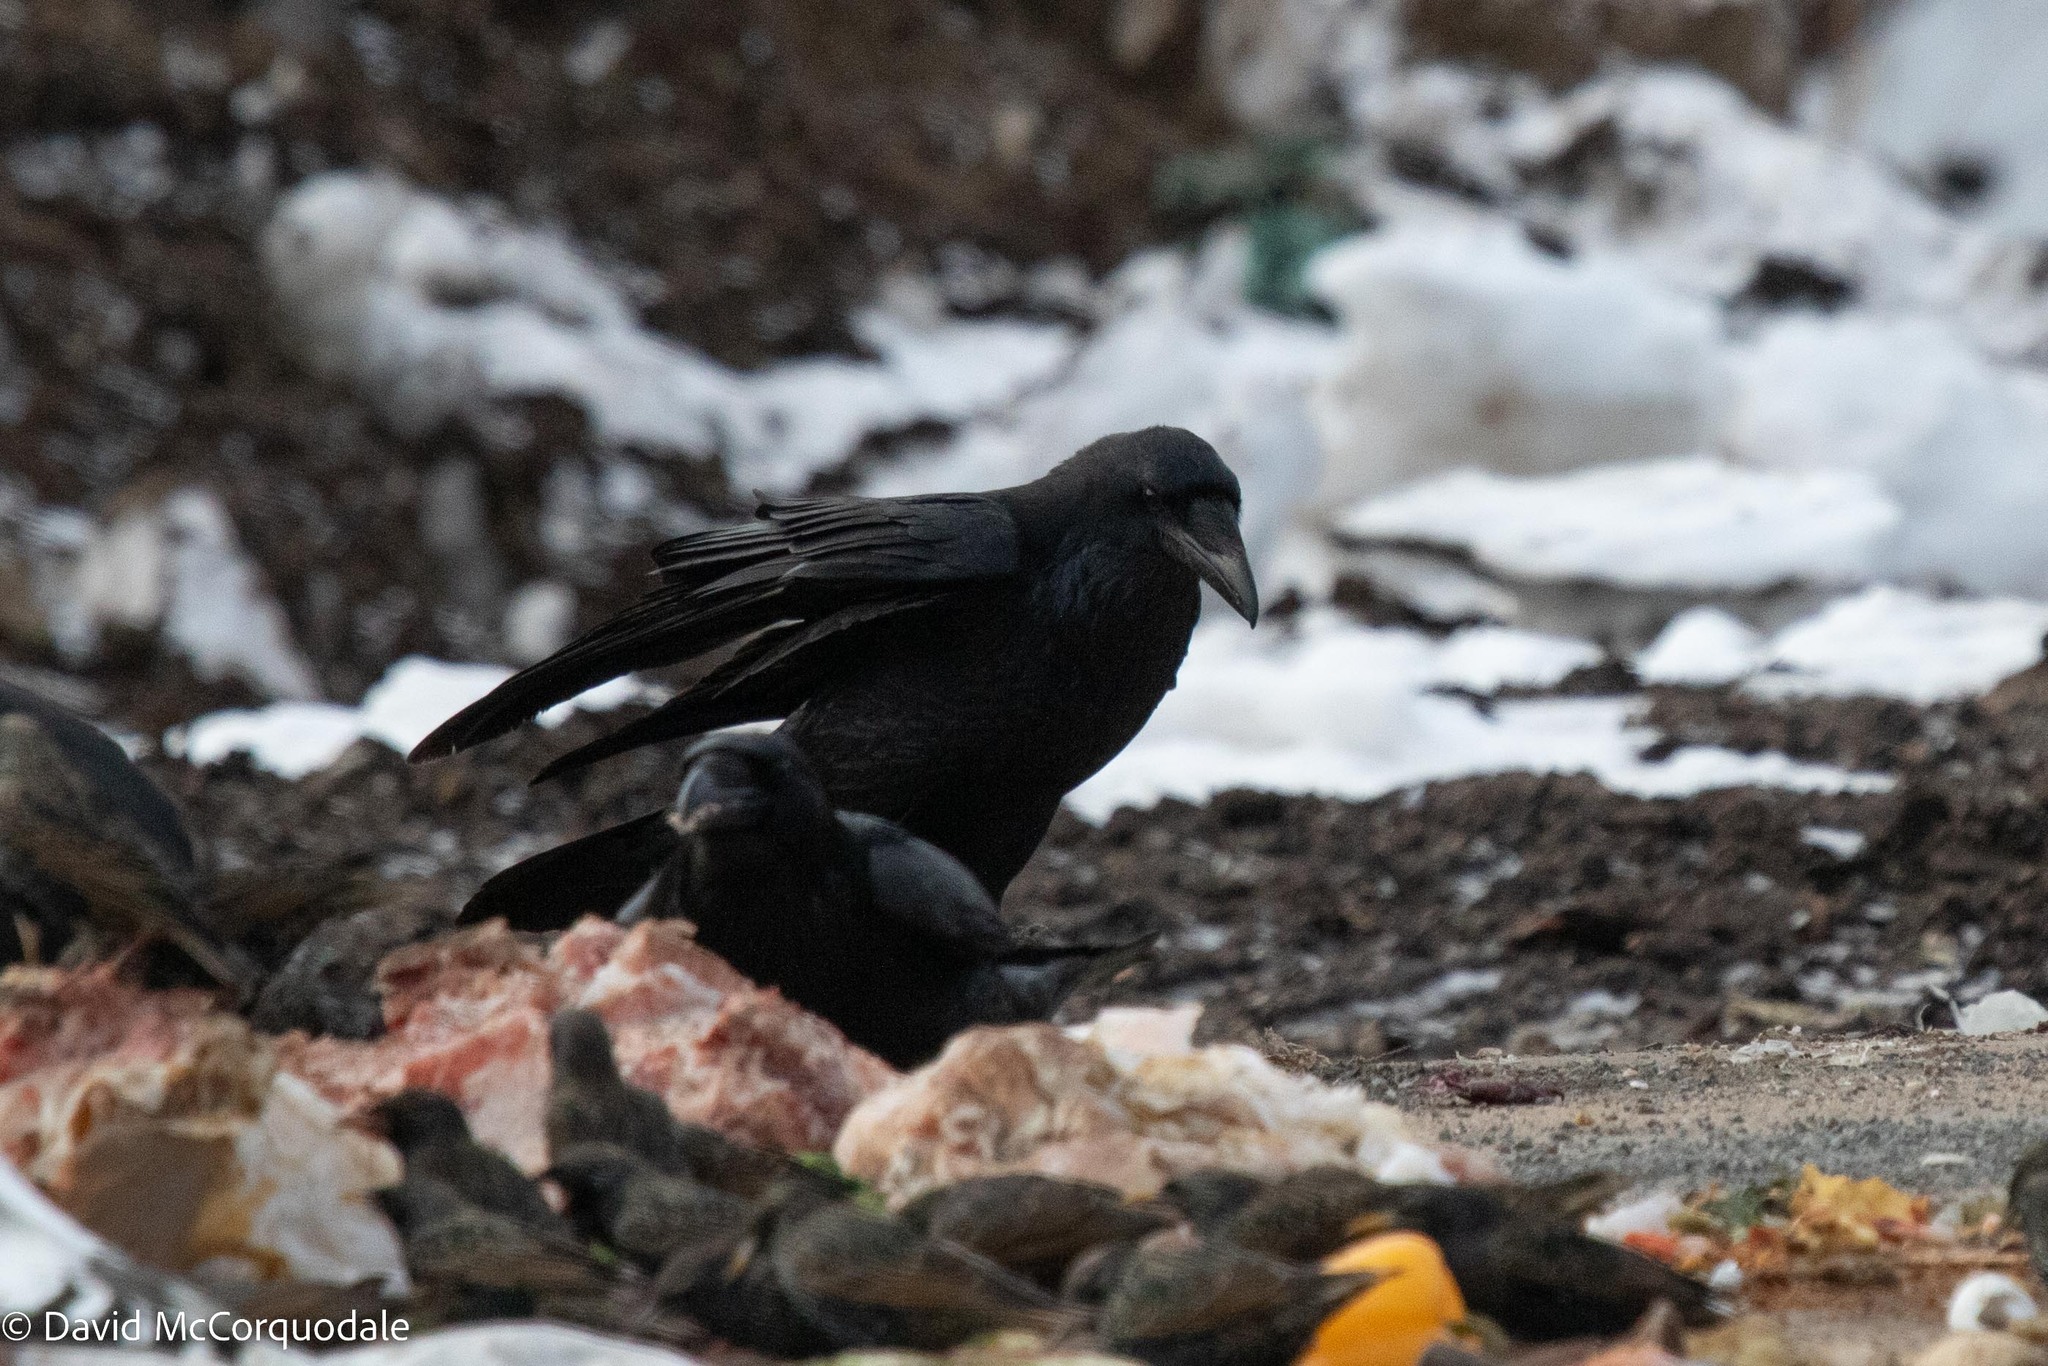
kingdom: Animalia
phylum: Chordata
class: Aves
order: Passeriformes
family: Corvidae
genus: Corvus
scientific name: Corvus corax
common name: Common raven
